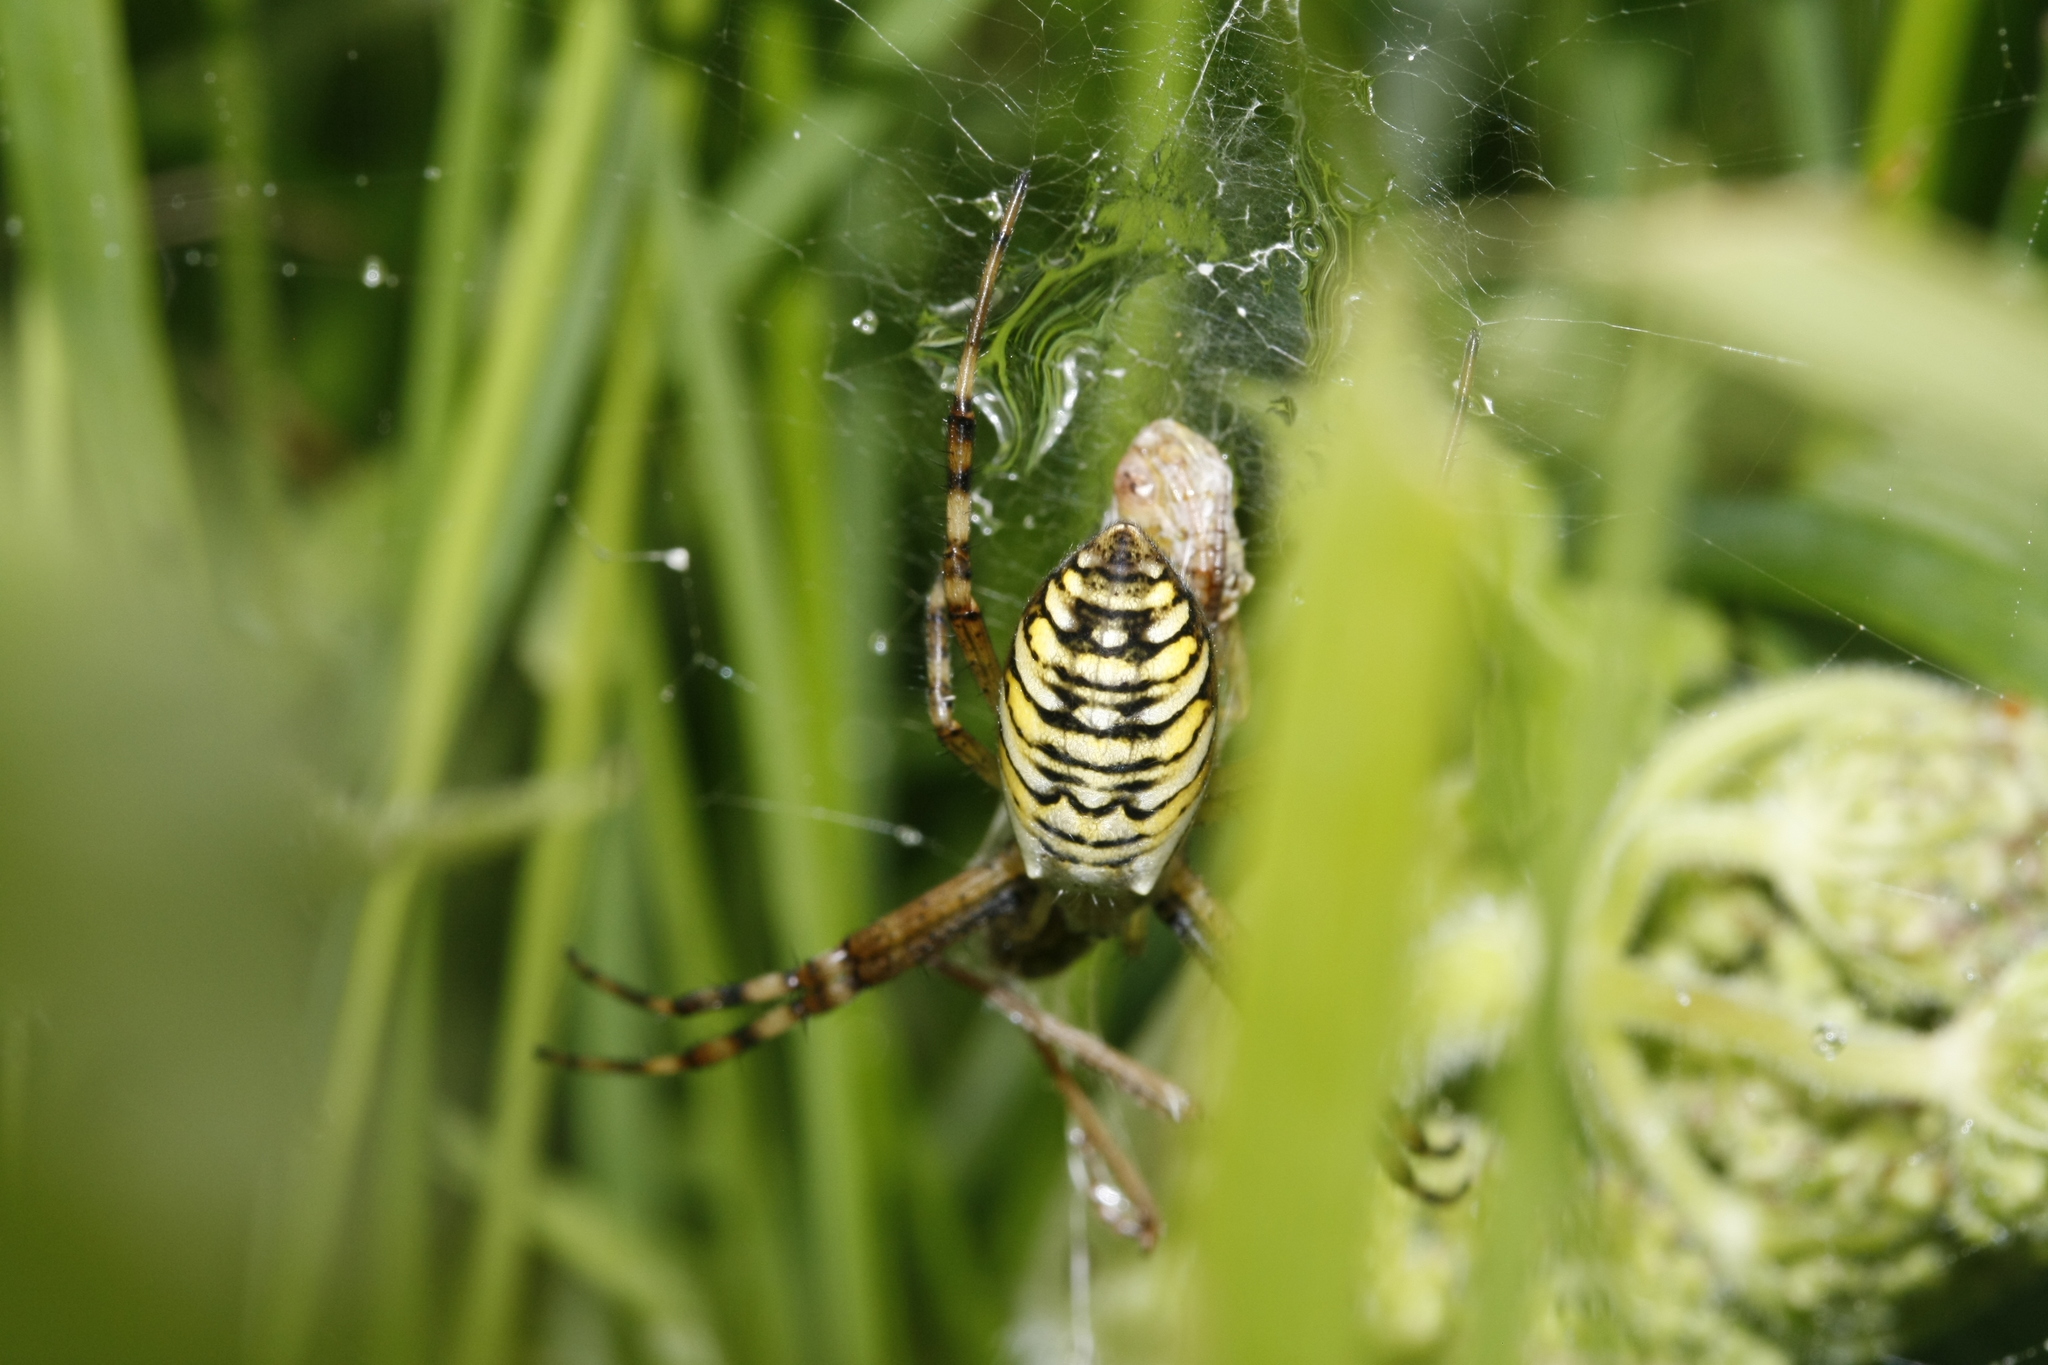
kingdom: Animalia
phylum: Arthropoda
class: Arachnida
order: Araneae
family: Araneidae
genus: Argiope
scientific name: Argiope bruennichi
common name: Wasp spider
